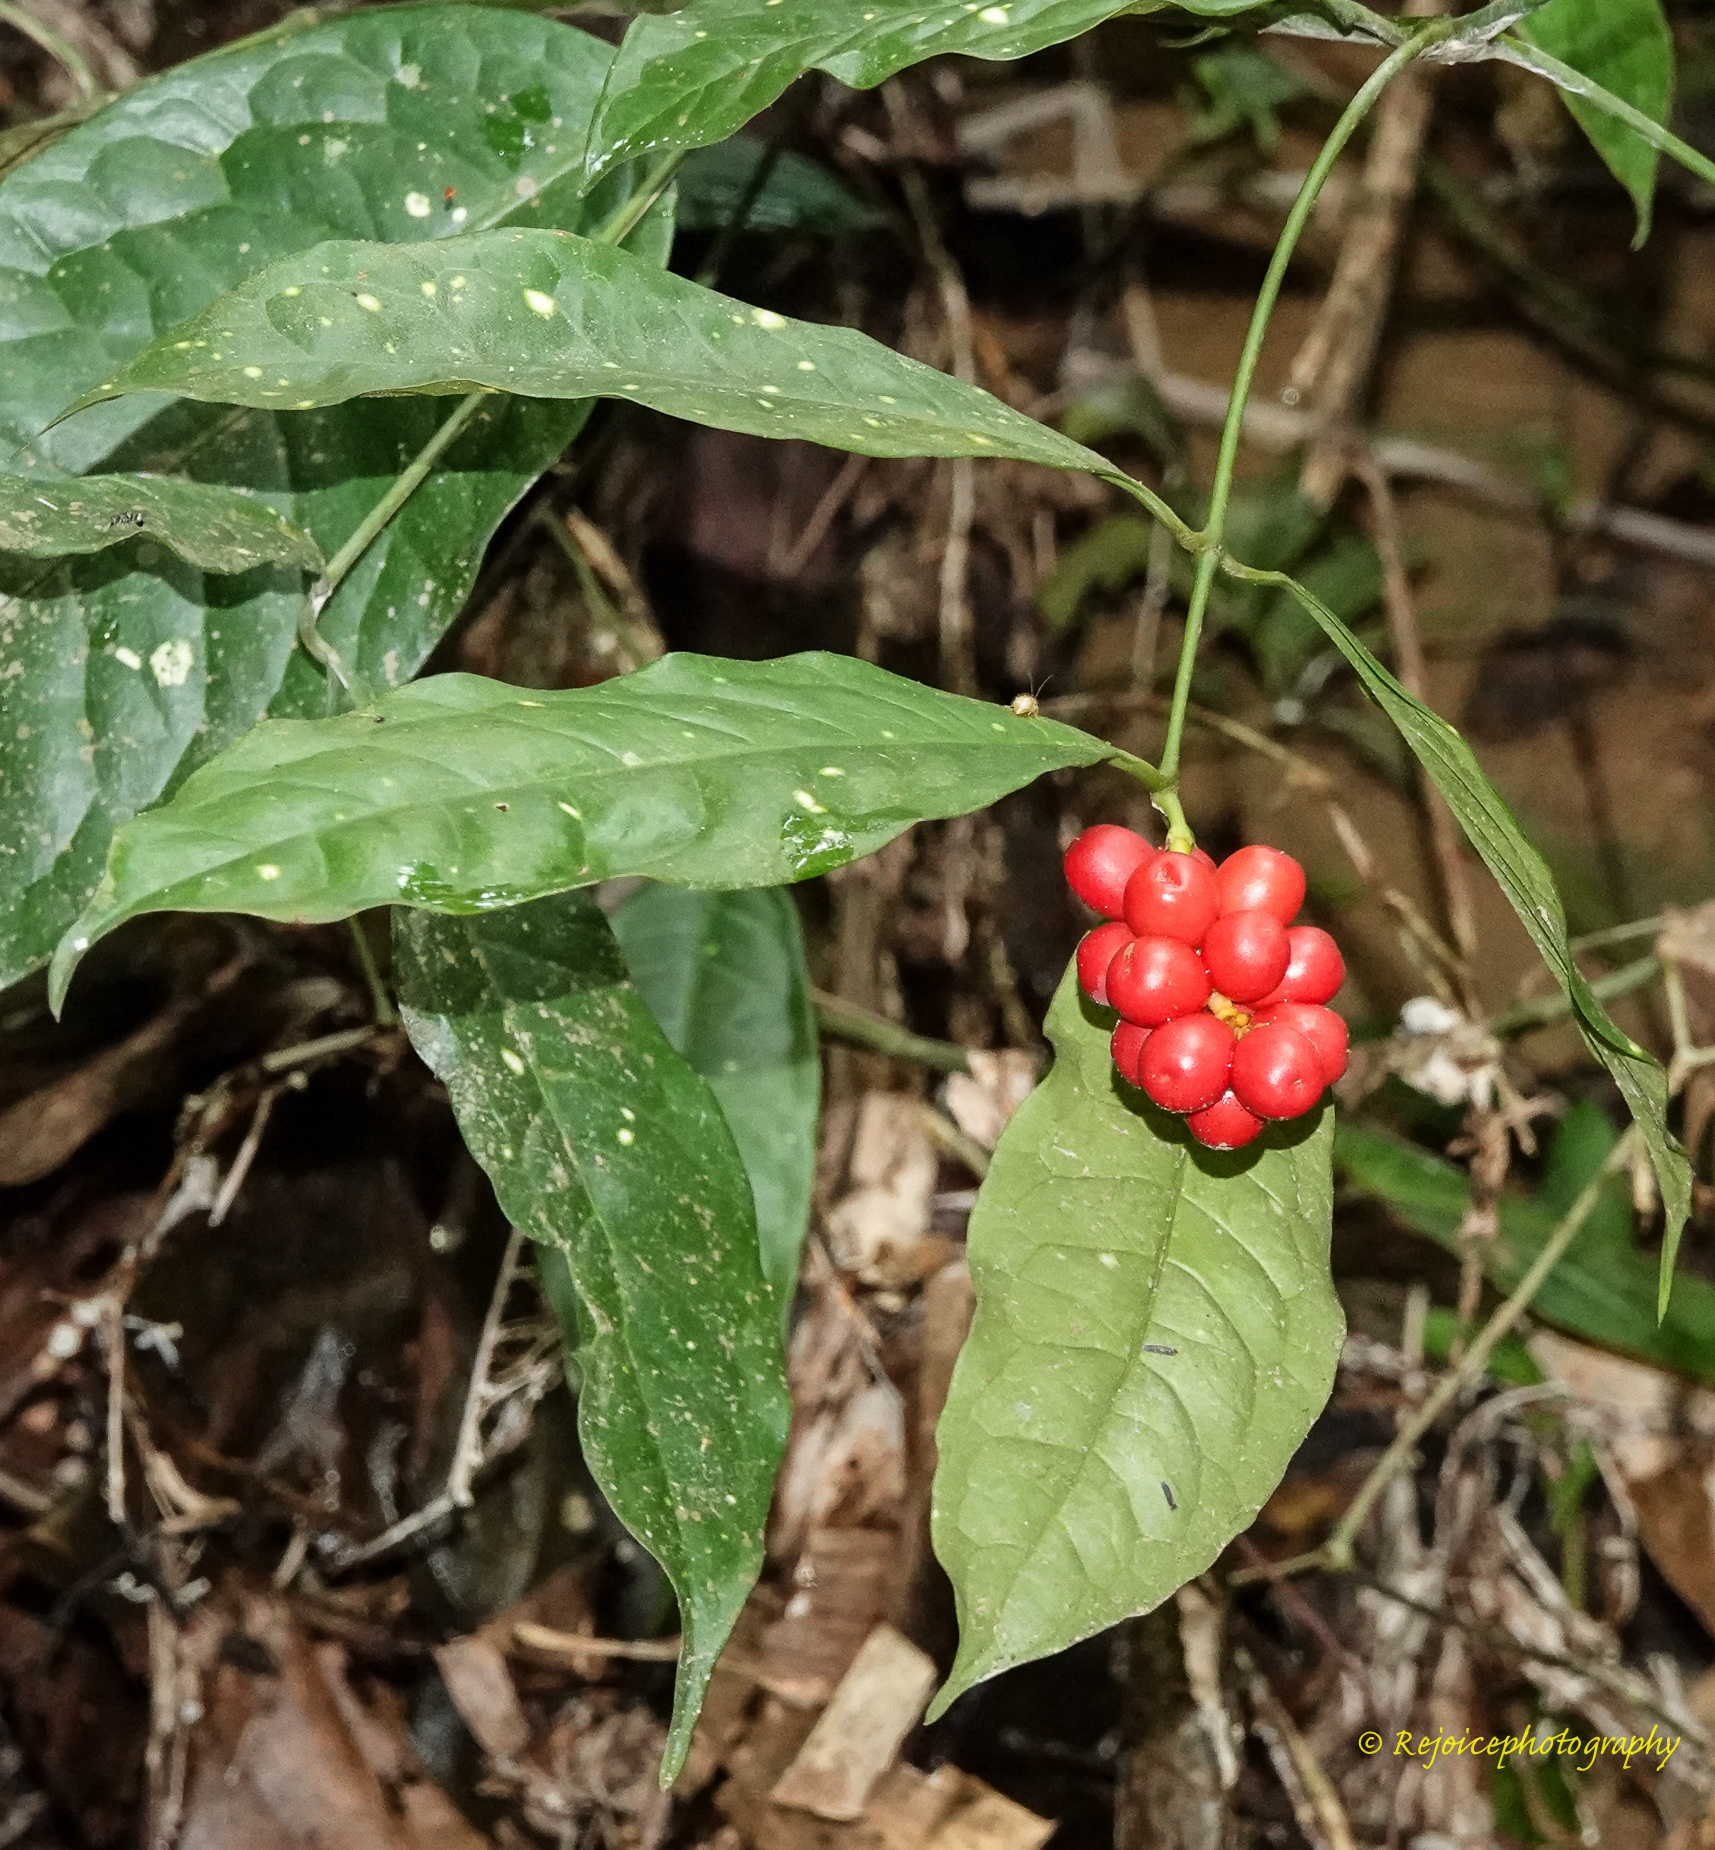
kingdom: Plantae
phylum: Tracheophyta
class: Gnetopsida
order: Gnetales
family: Gnetaceae
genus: Gnetum
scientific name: Gnetum gnemon
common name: Spanish joint-fir
